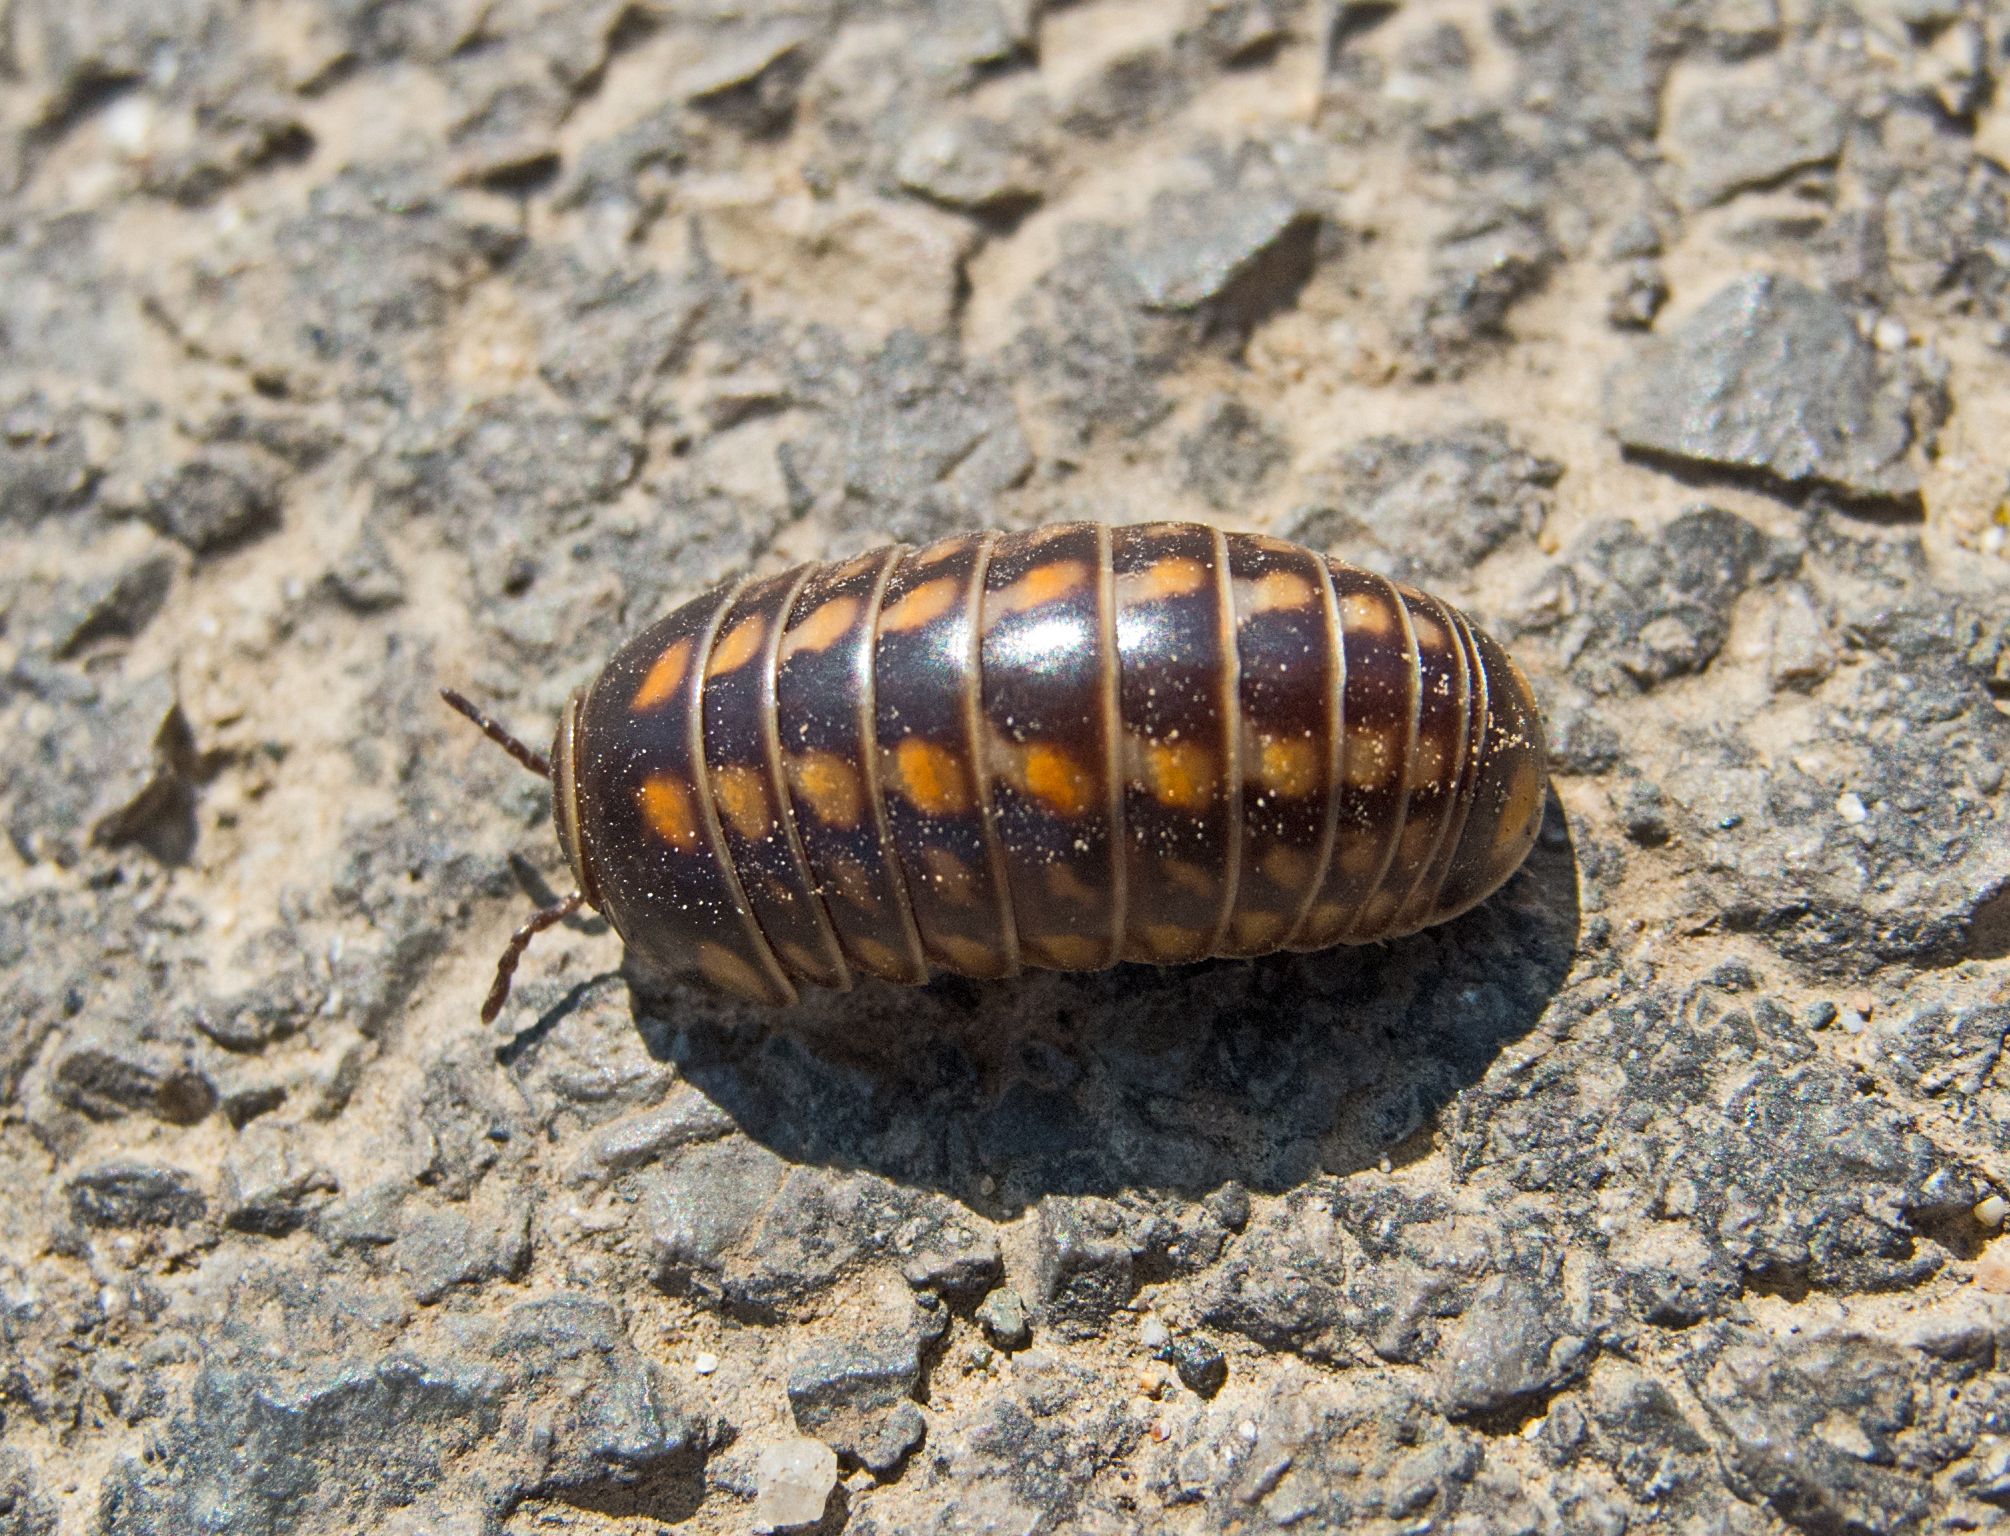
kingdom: Animalia
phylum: Arthropoda
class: Diplopoda
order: Glomerida
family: Glomeridae
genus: Glomeris
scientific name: Glomeris hexasticha
